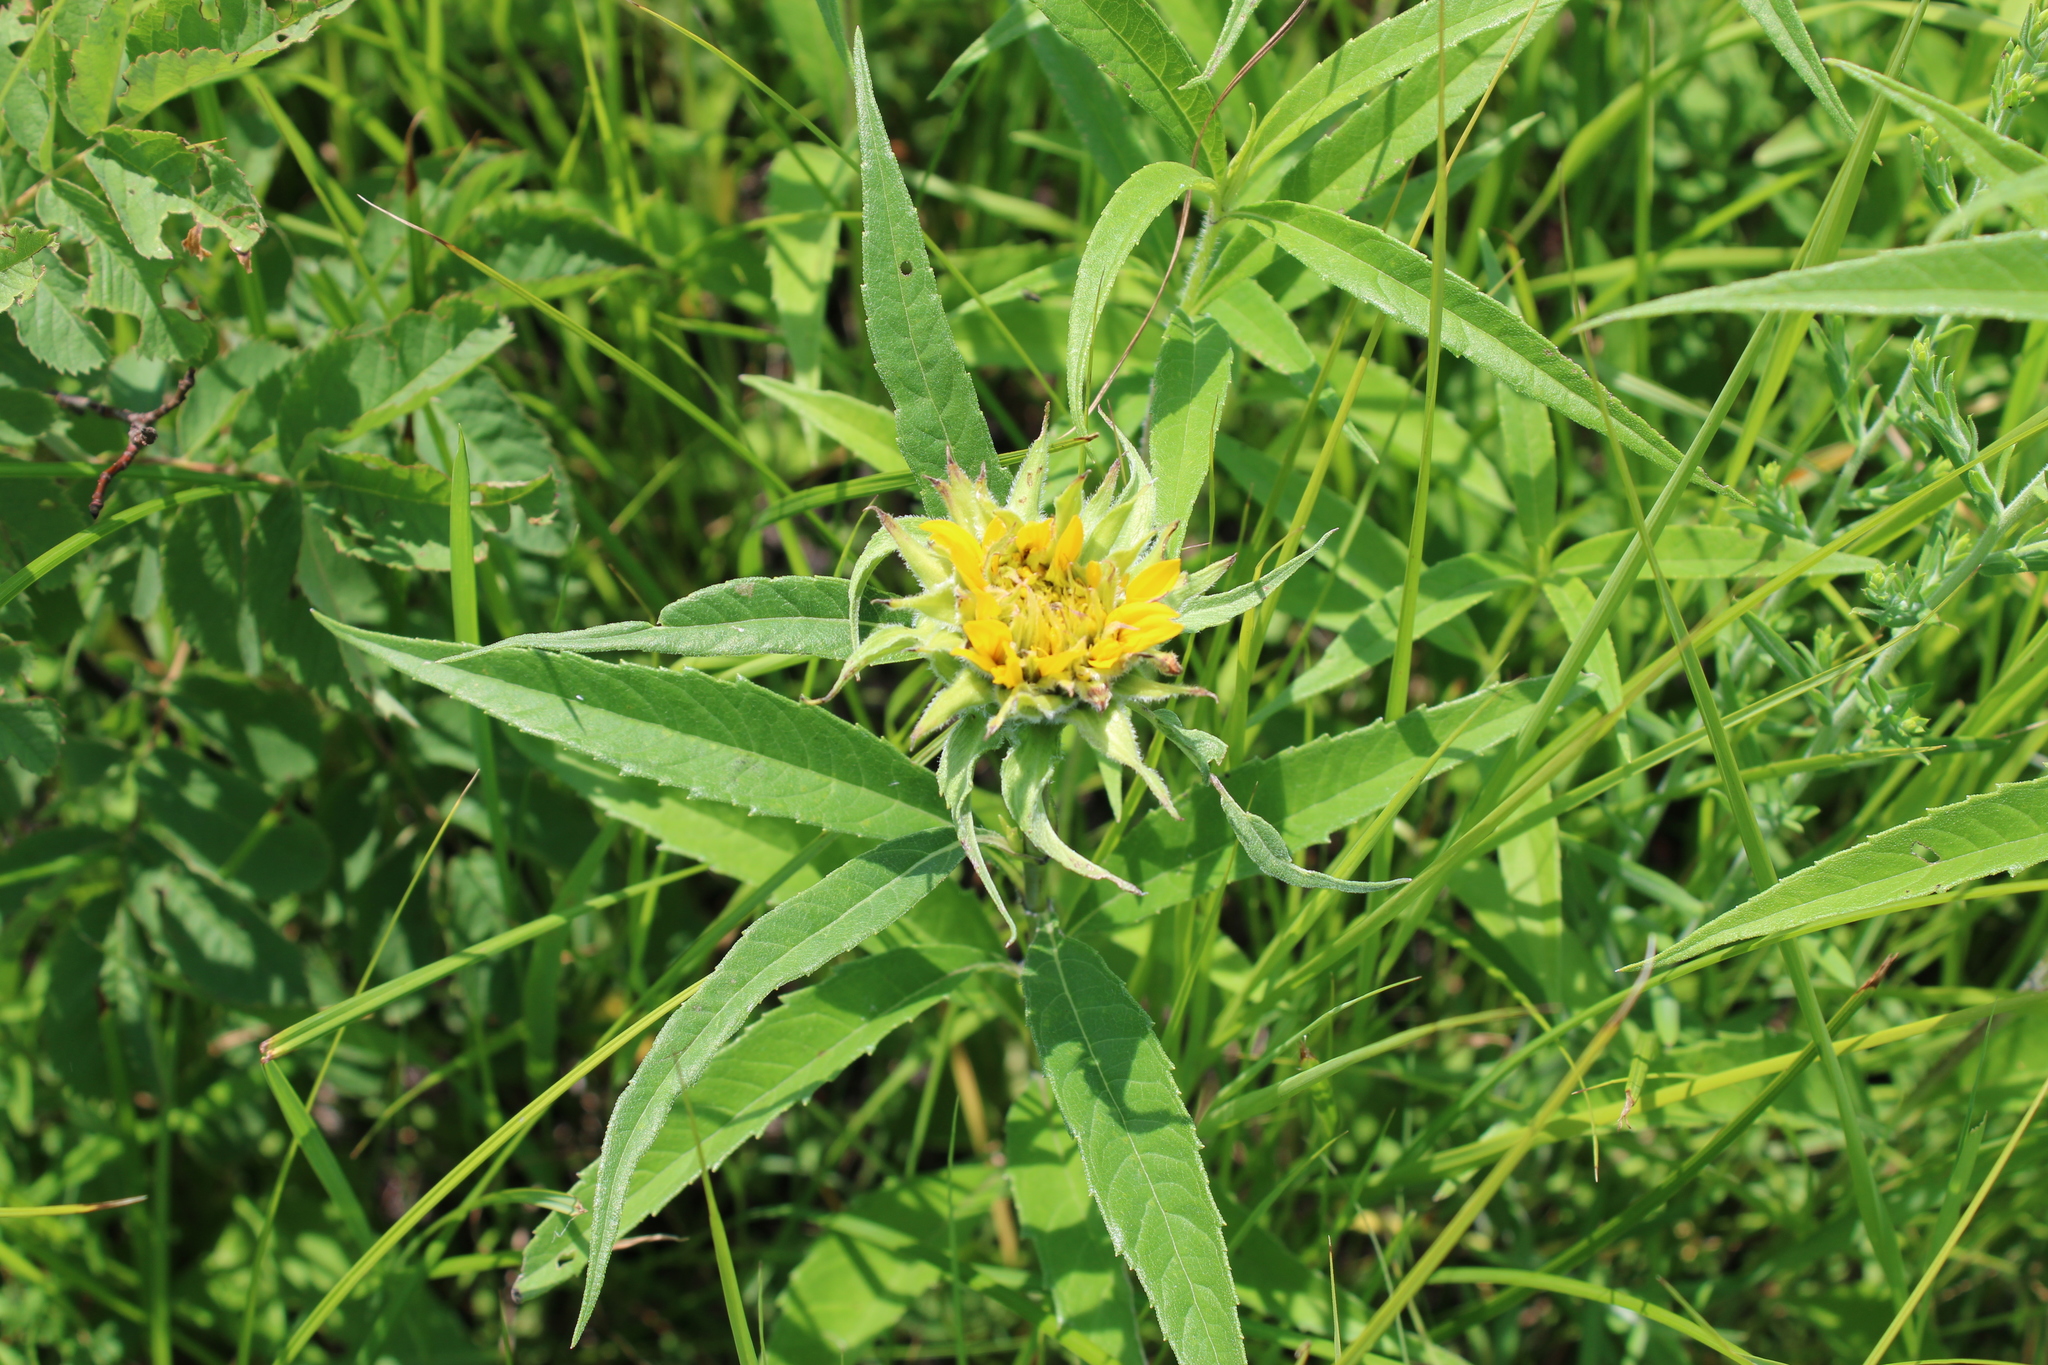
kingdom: Plantae
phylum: Tracheophyta
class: Magnoliopsida
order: Asterales
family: Asteraceae
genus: Helianthus
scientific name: Helianthus grosseserratus
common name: Sawtooth sunflower
